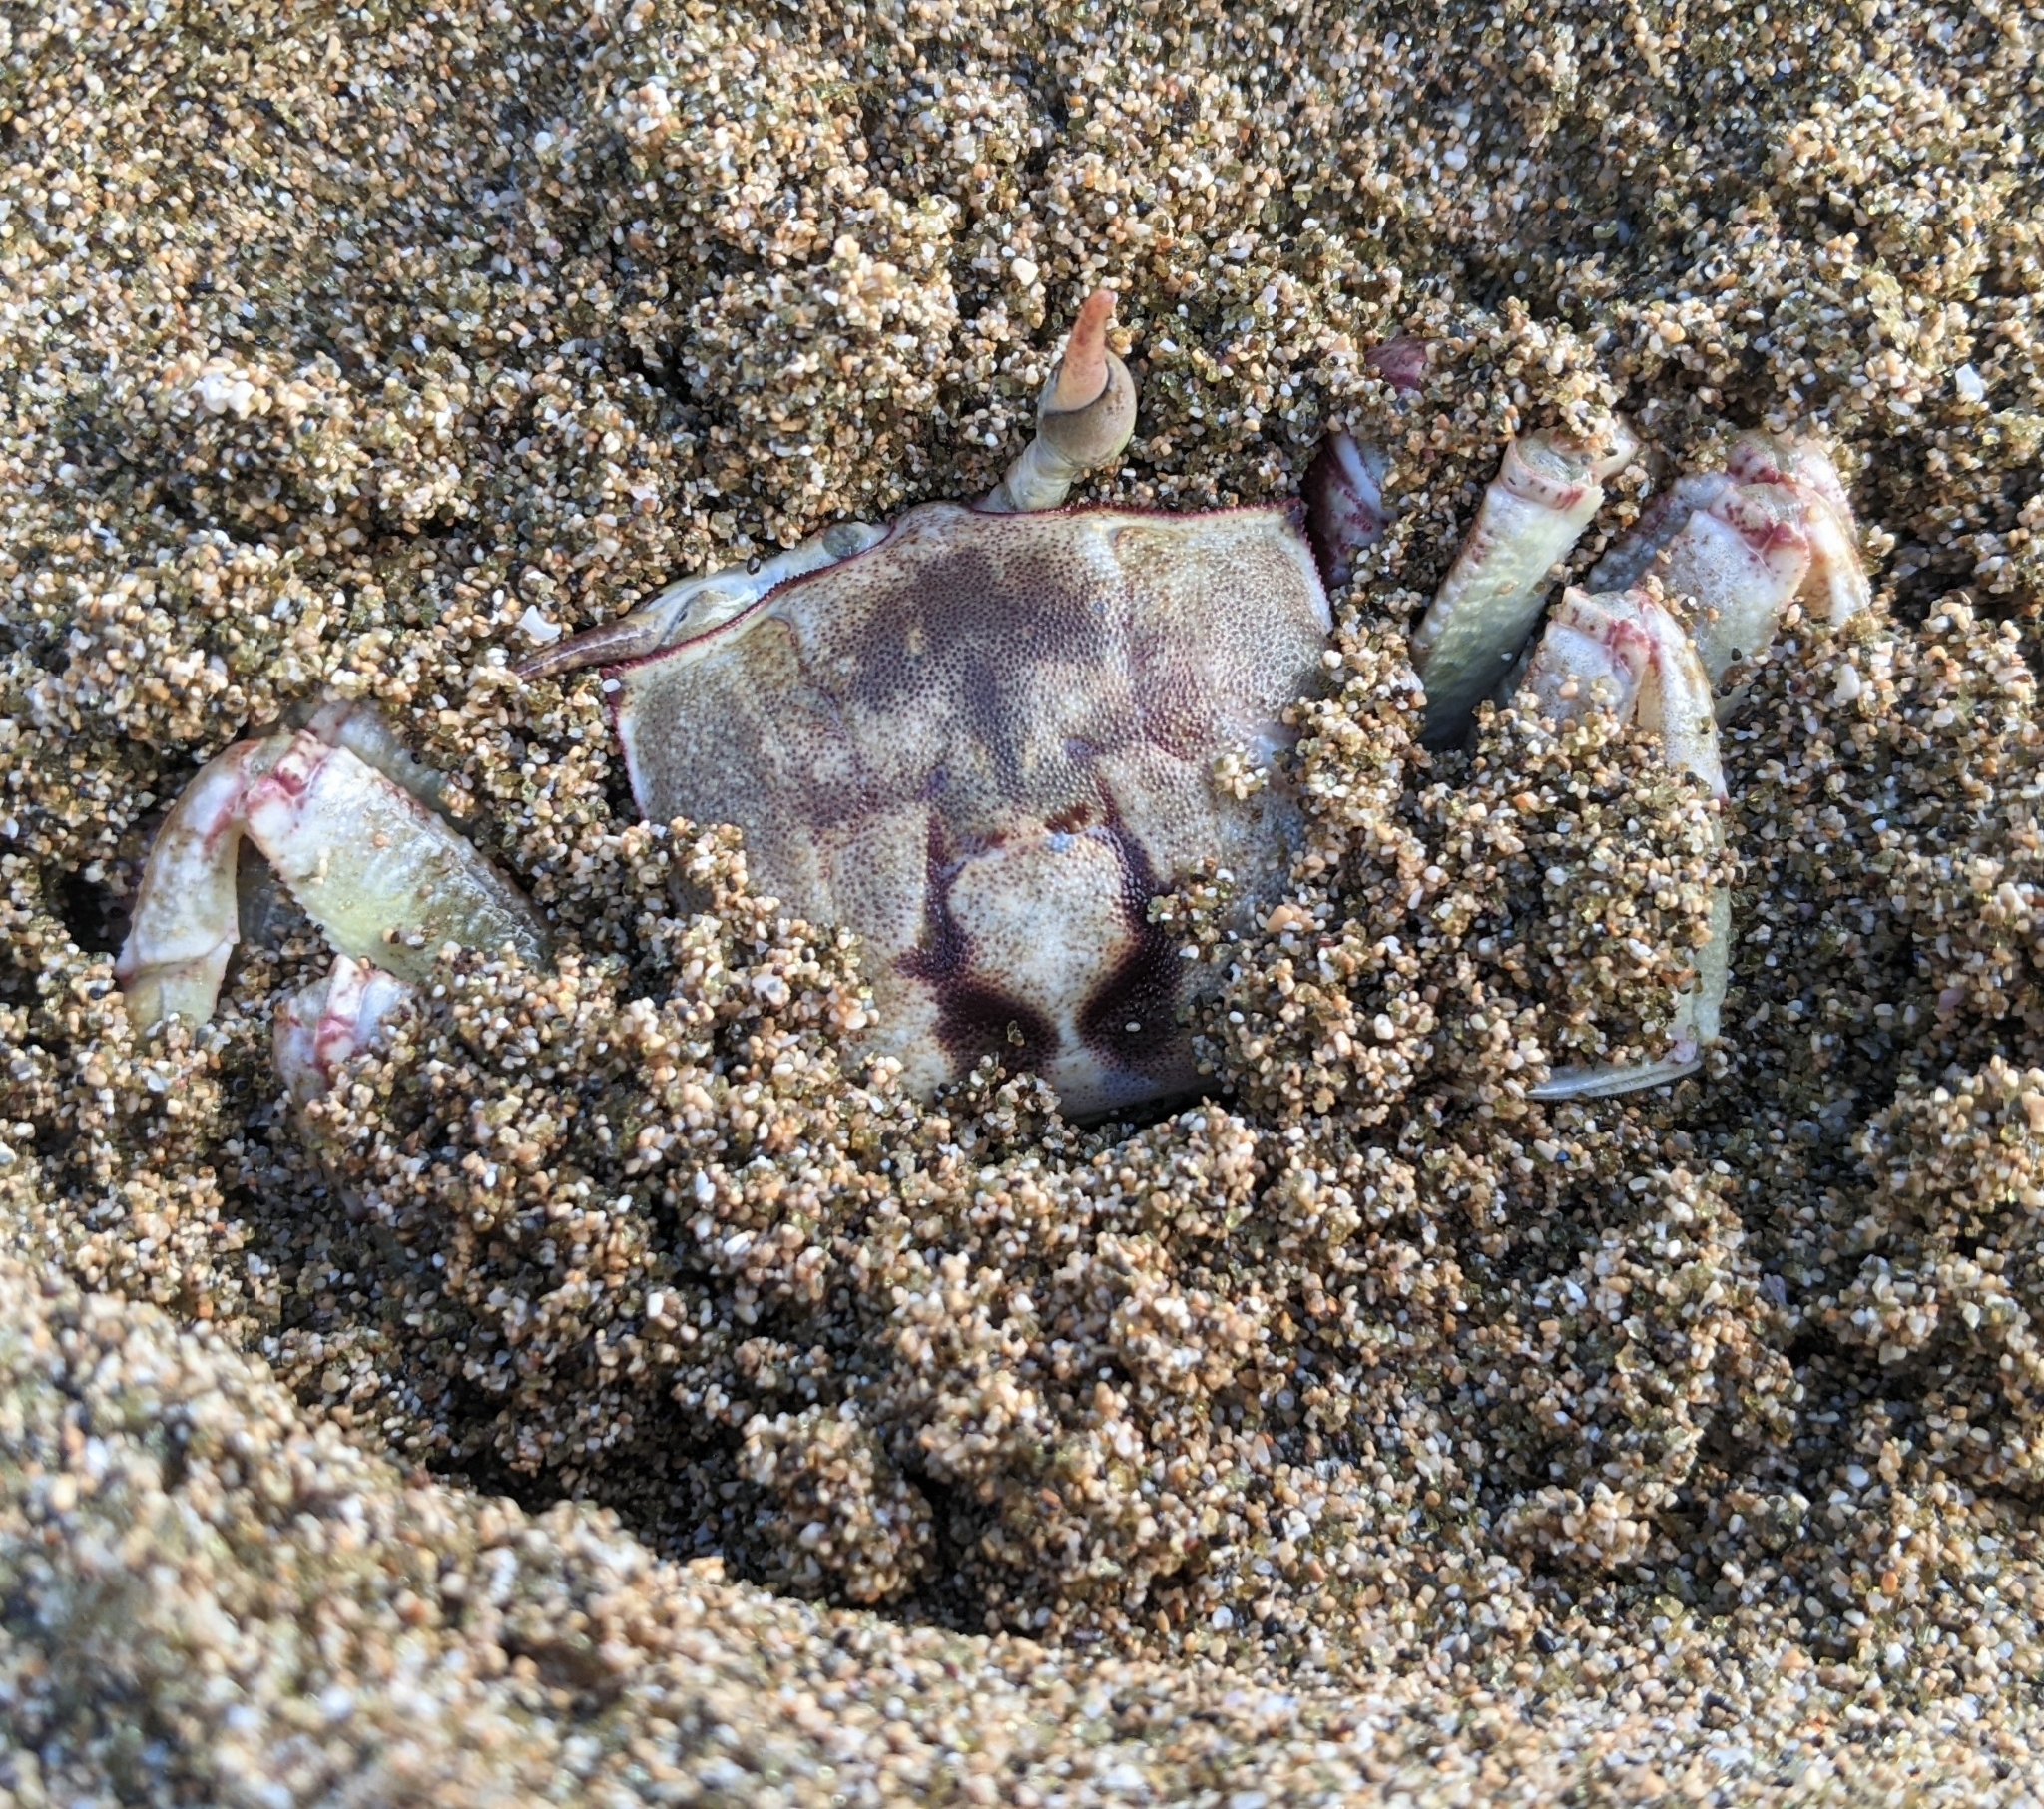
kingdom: Animalia
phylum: Arthropoda
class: Malacostraca
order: Decapoda
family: Ocypodidae
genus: Ocypode
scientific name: Ocypode ceratophthalmus
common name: Indo-pacific ghost crab
